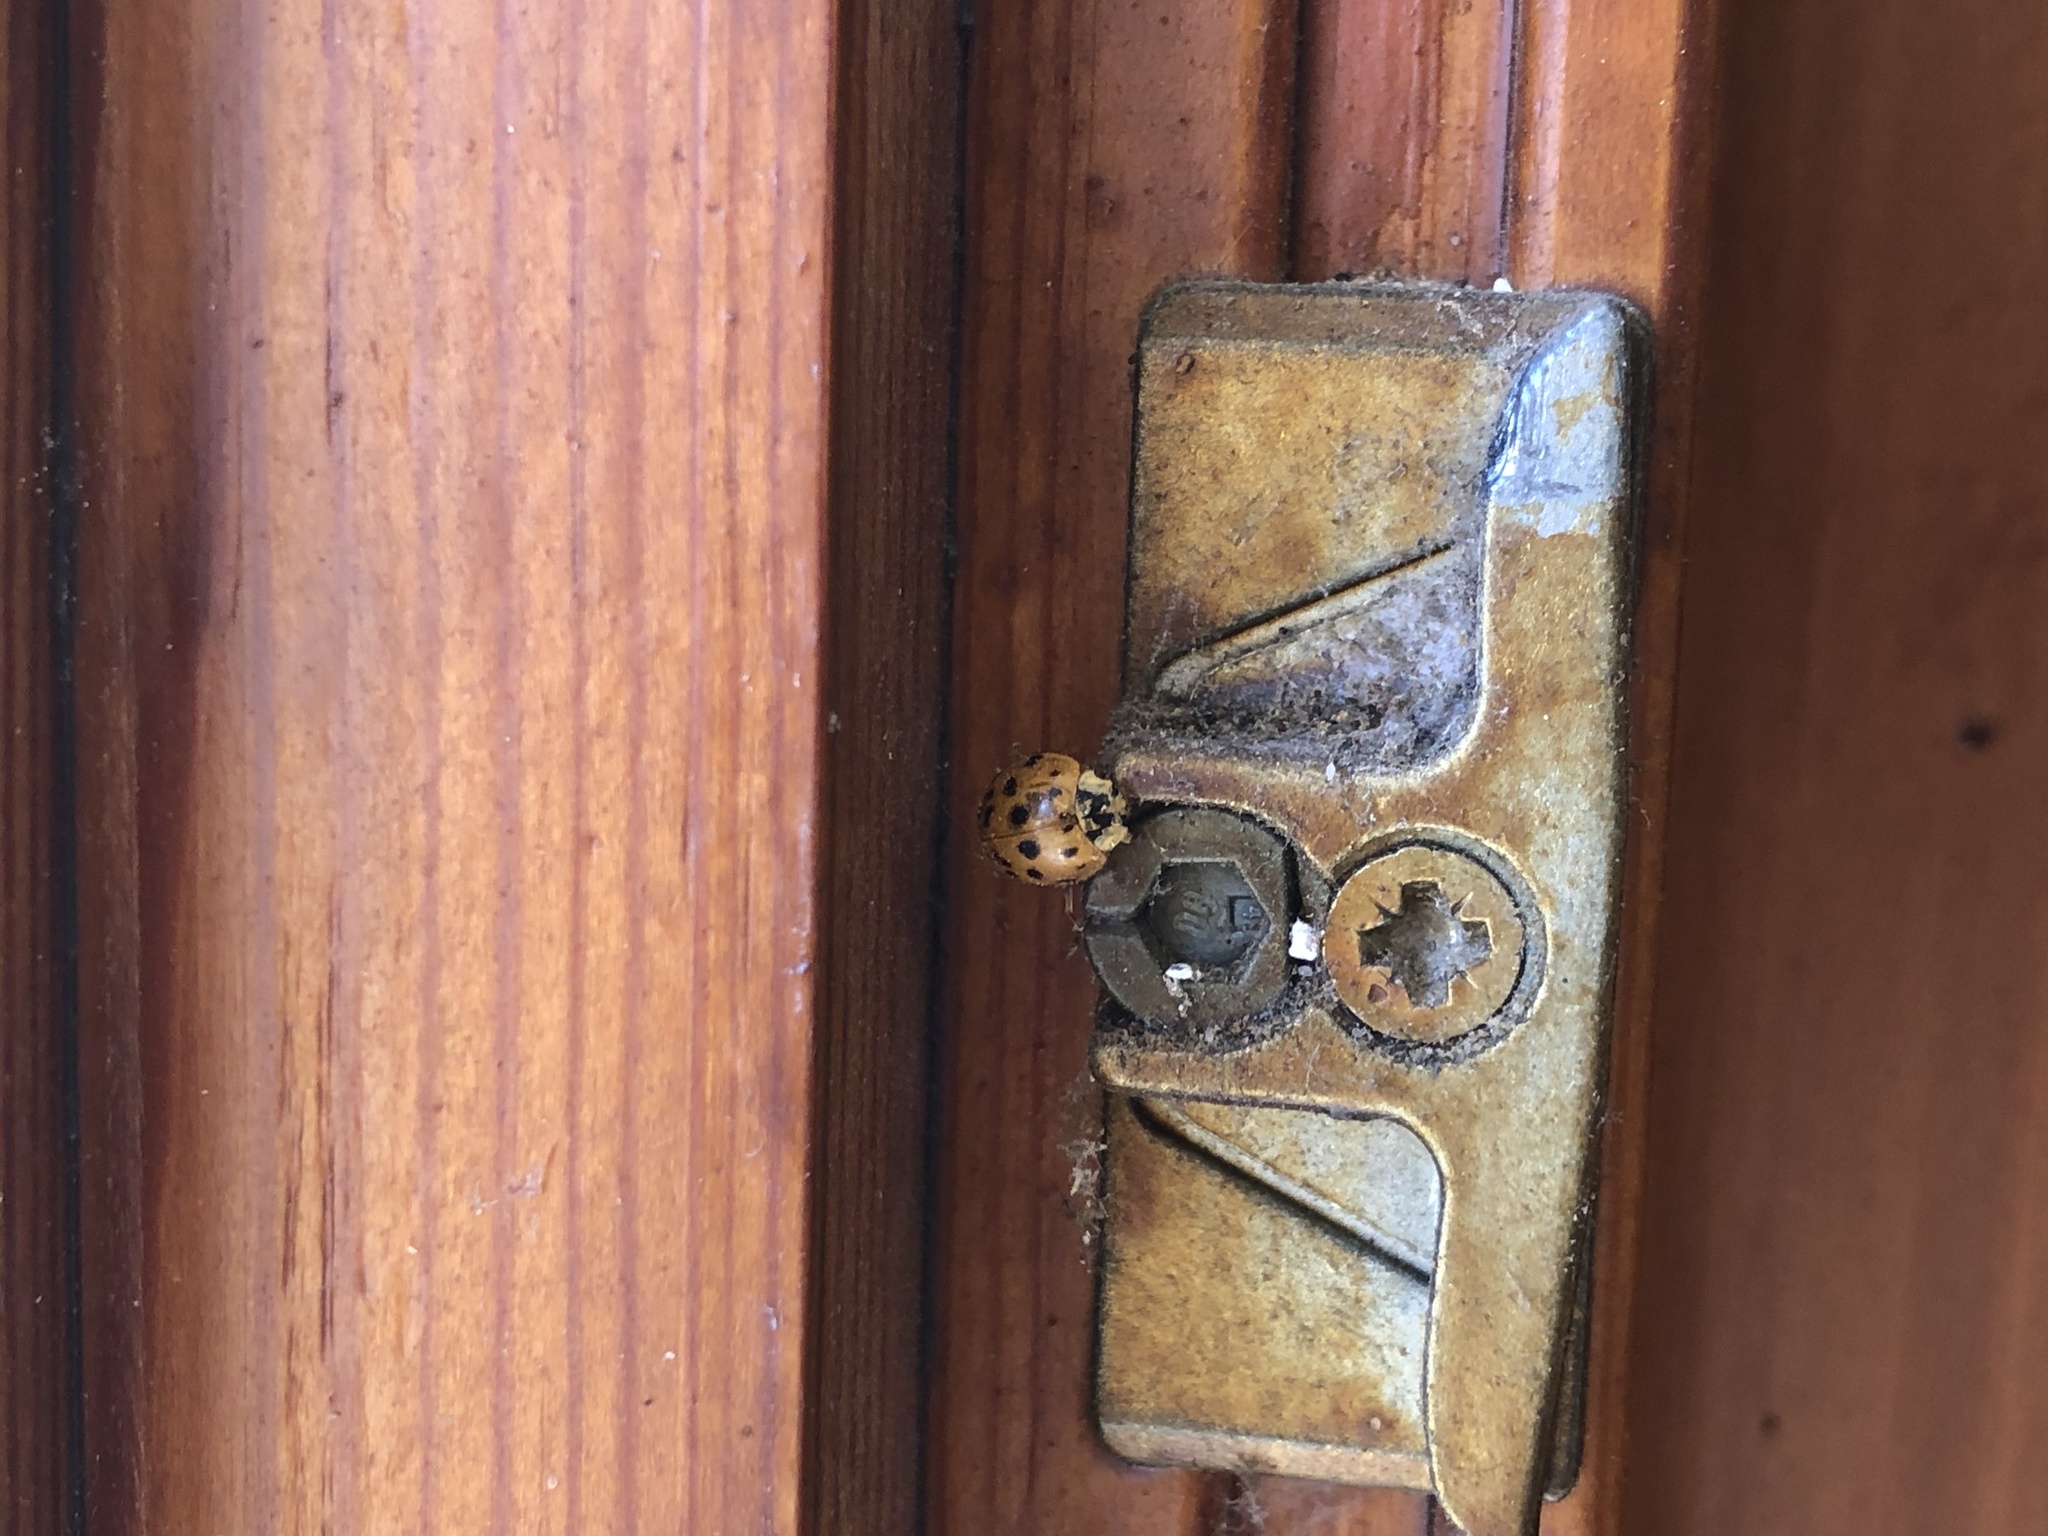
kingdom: Animalia
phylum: Arthropoda
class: Insecta
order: Coleoptera
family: Coccinellidae
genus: Harmonia
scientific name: Harmonia axyridis
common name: Harlequin ladybird
